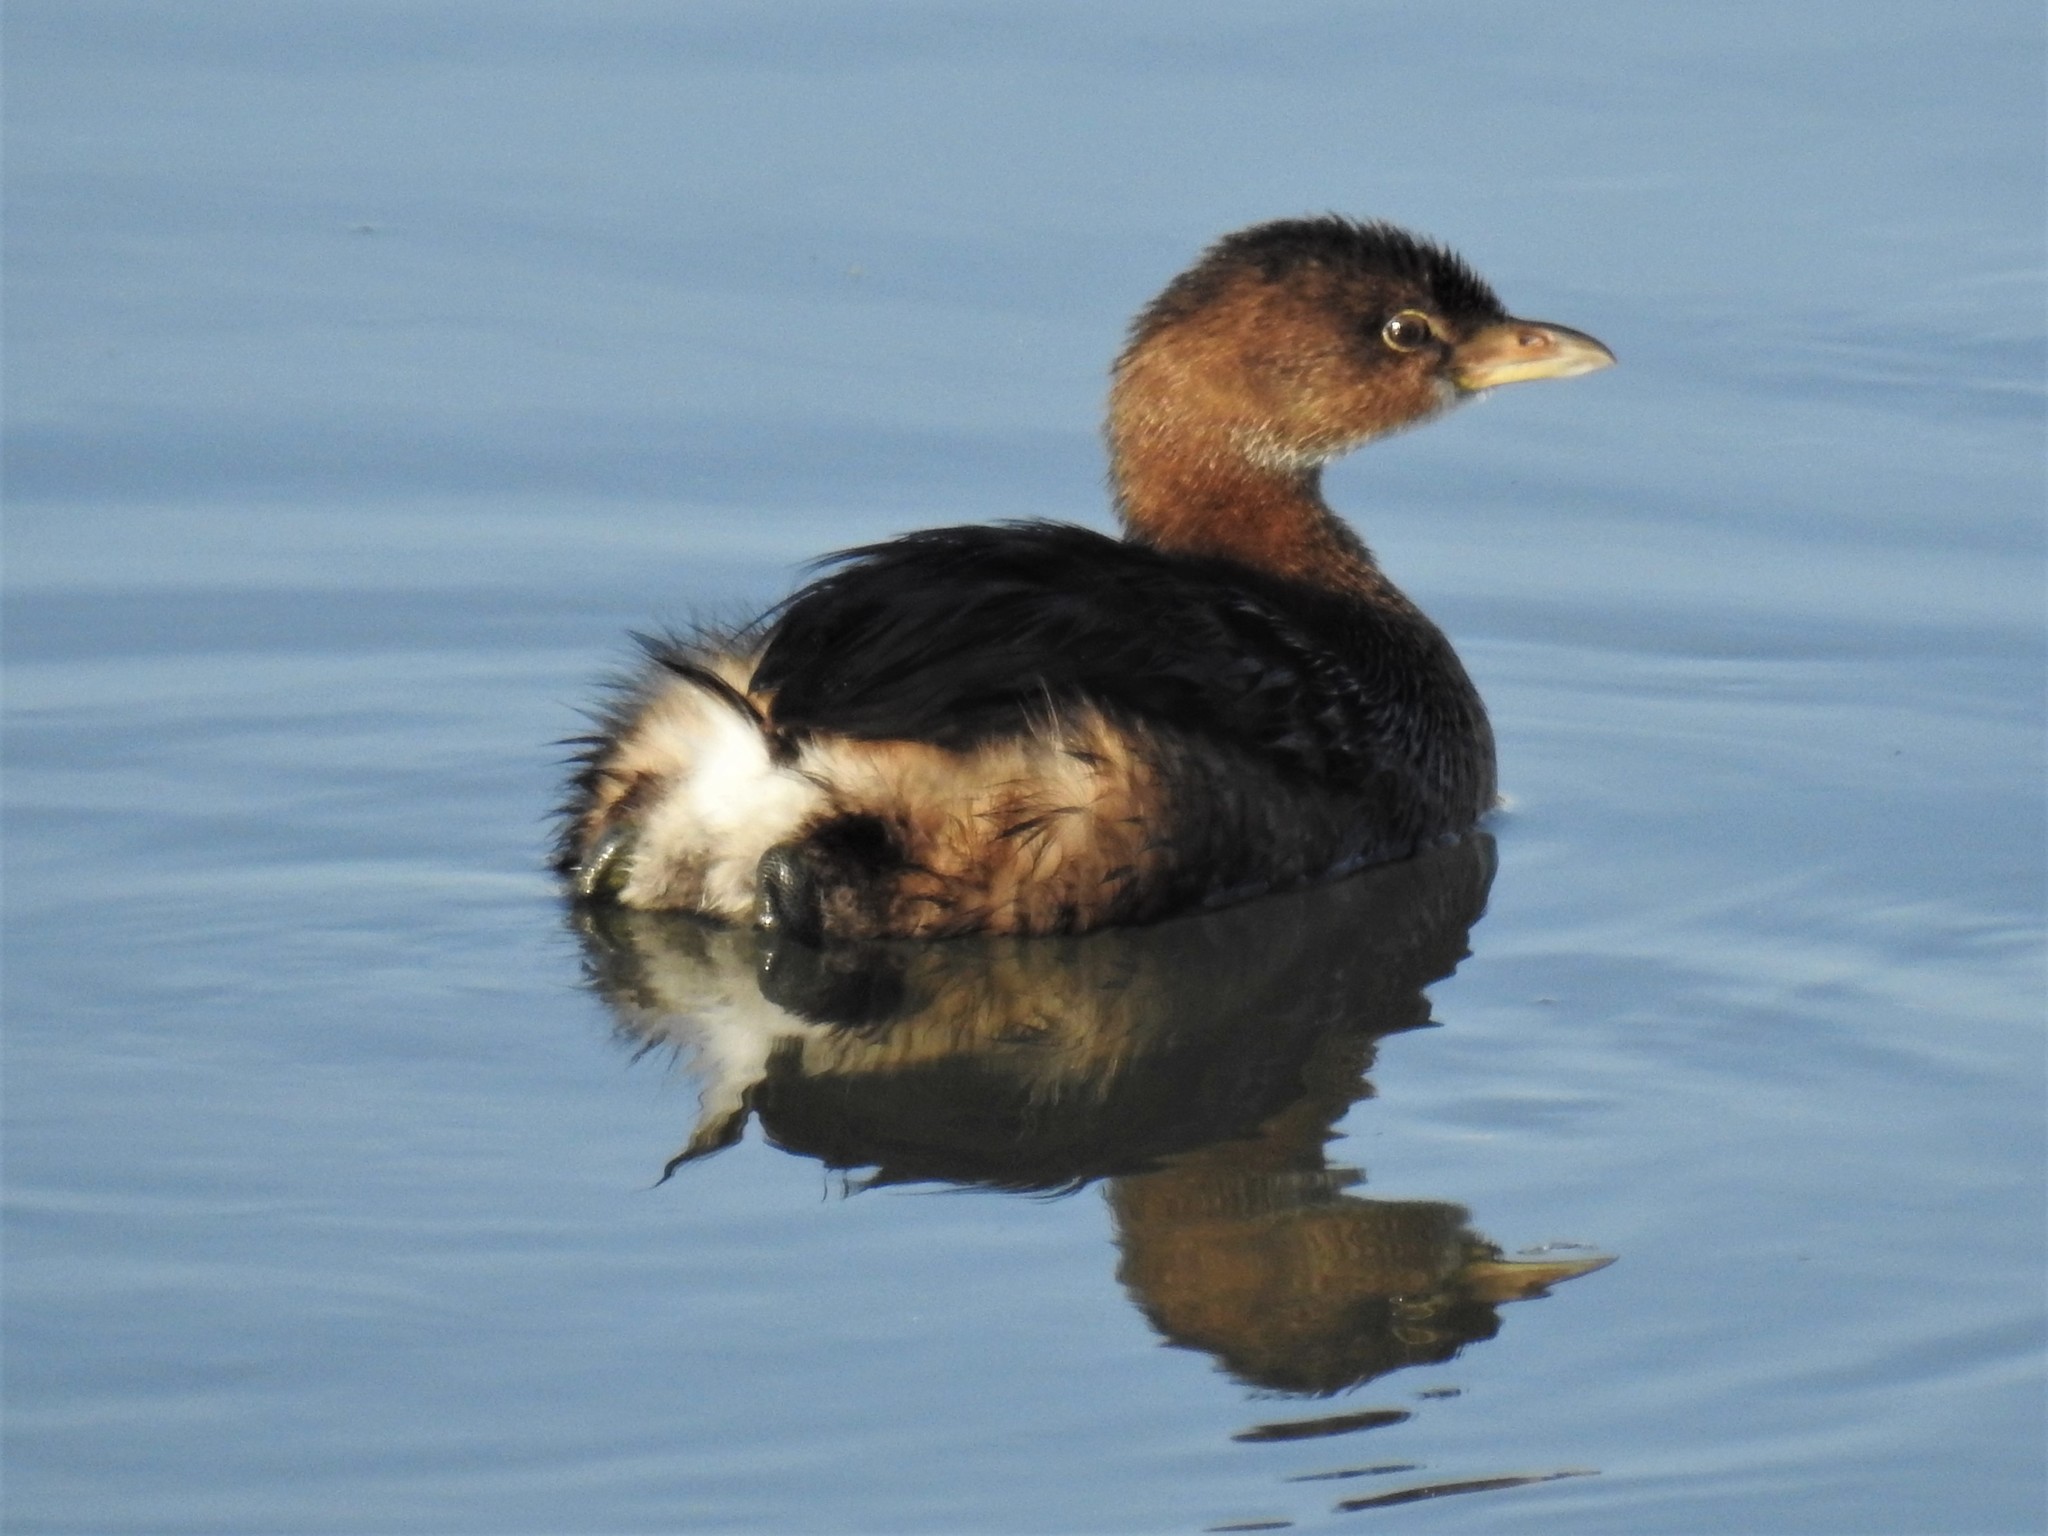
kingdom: Animalia
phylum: Chordata
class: Aves
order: Podicipediformes
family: Podicipedidae
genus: Podilymbus
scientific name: Podilymbus podiceps
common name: Pied-billed grebe
